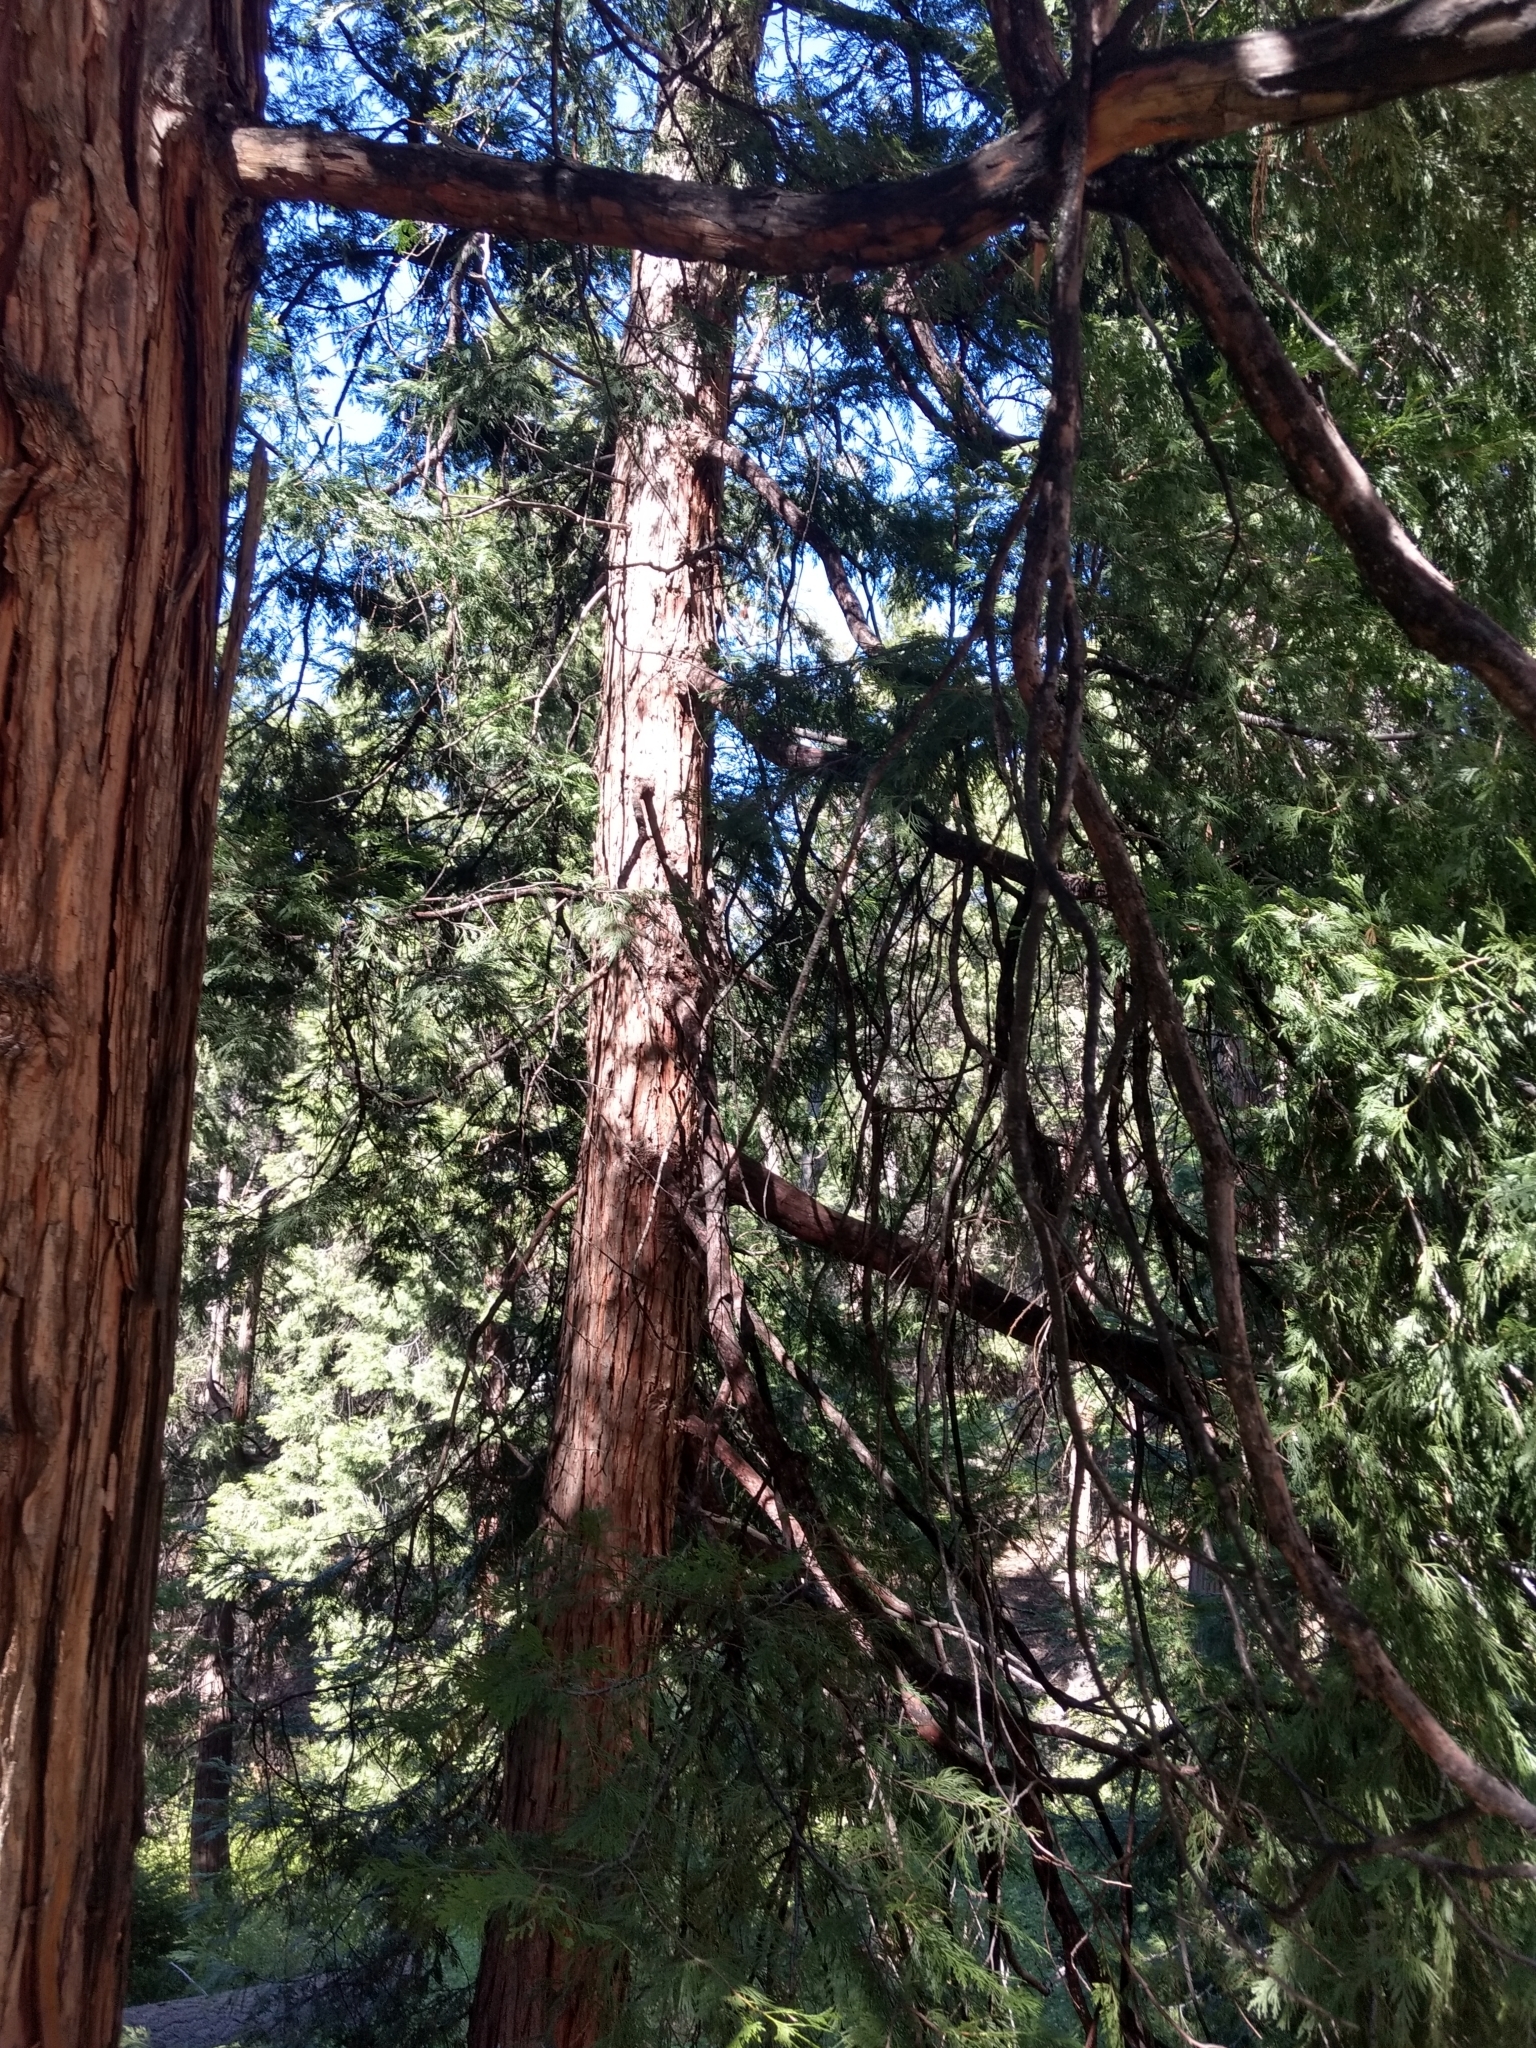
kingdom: Plantae
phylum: Tracheophyta
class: Pinopsida
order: Pinales
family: Cupressaceae
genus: Calocedrus
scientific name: Calocedrus decurrens
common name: Californian incense-cedar
